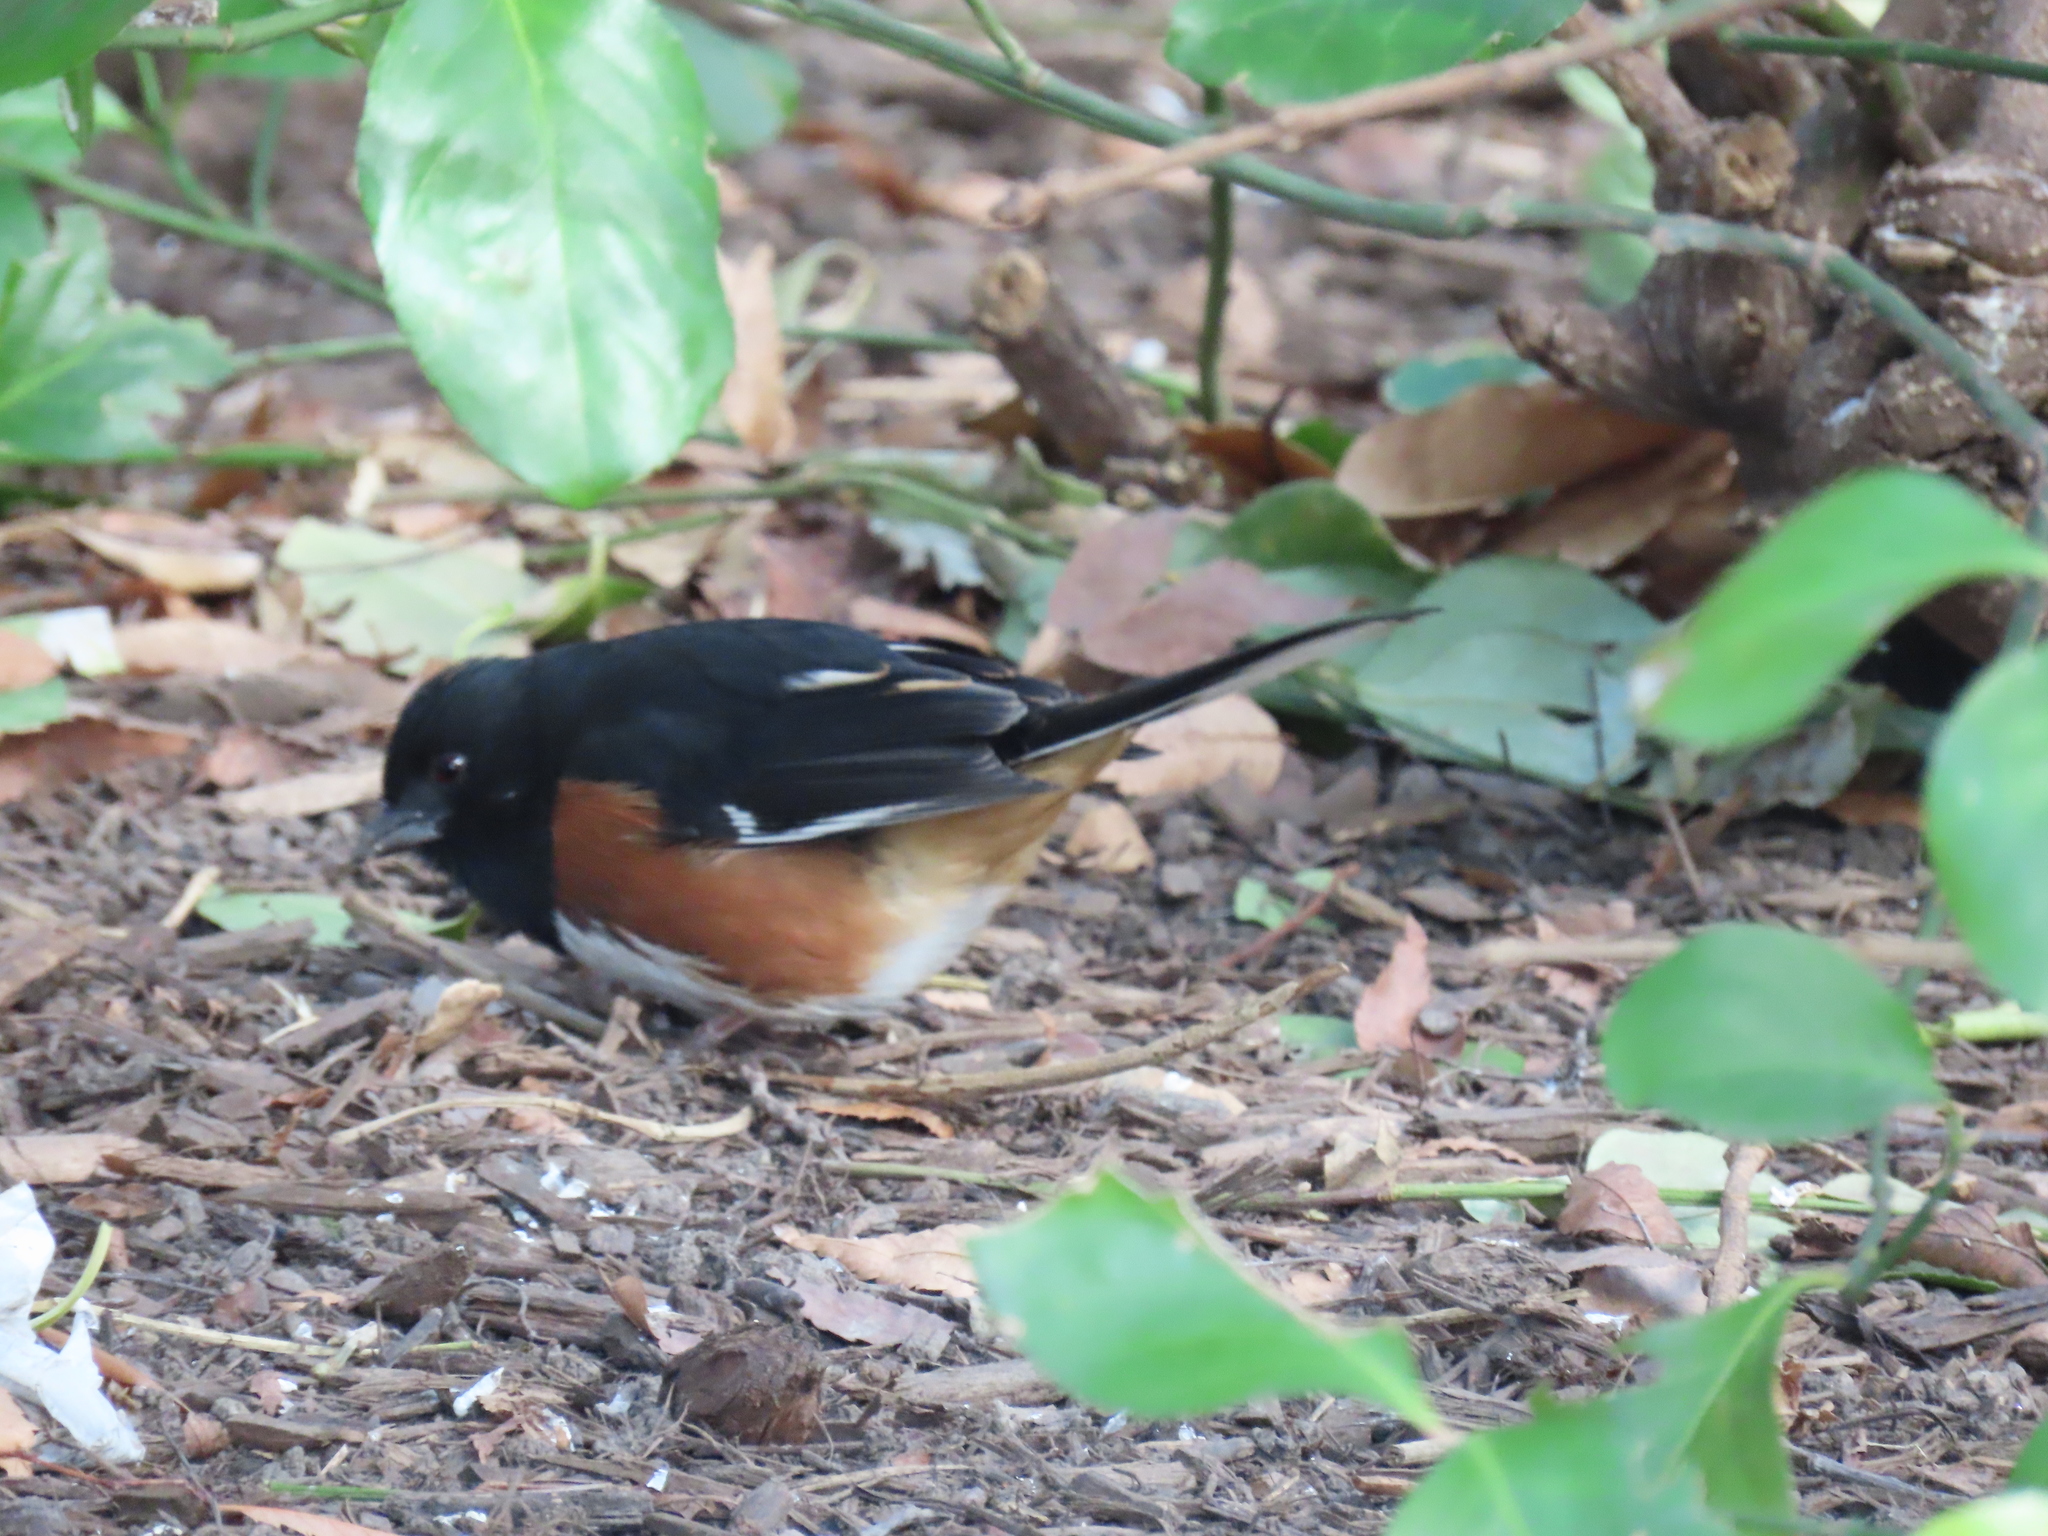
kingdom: Animalia
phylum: Chordata
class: Aves
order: Passeriformes
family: Passerellidae
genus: Pipilo
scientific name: Pipilo erythrophthalmus
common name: Eastern towhee
